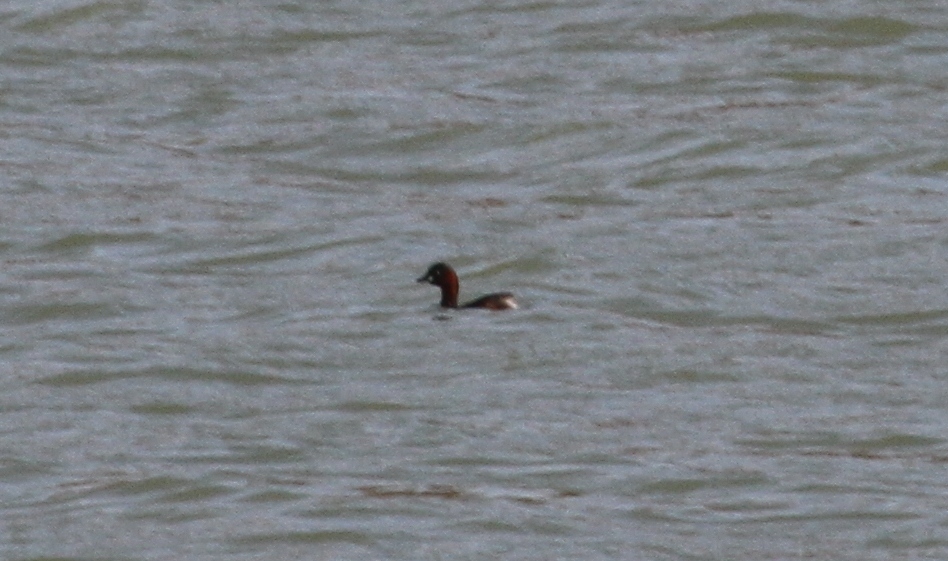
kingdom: Animalia
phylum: Chordata
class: Aves
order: Podicipediformes
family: Podicipedidae
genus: Tachybaptus
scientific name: Tachybaptus ruficollis
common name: Little grebe
